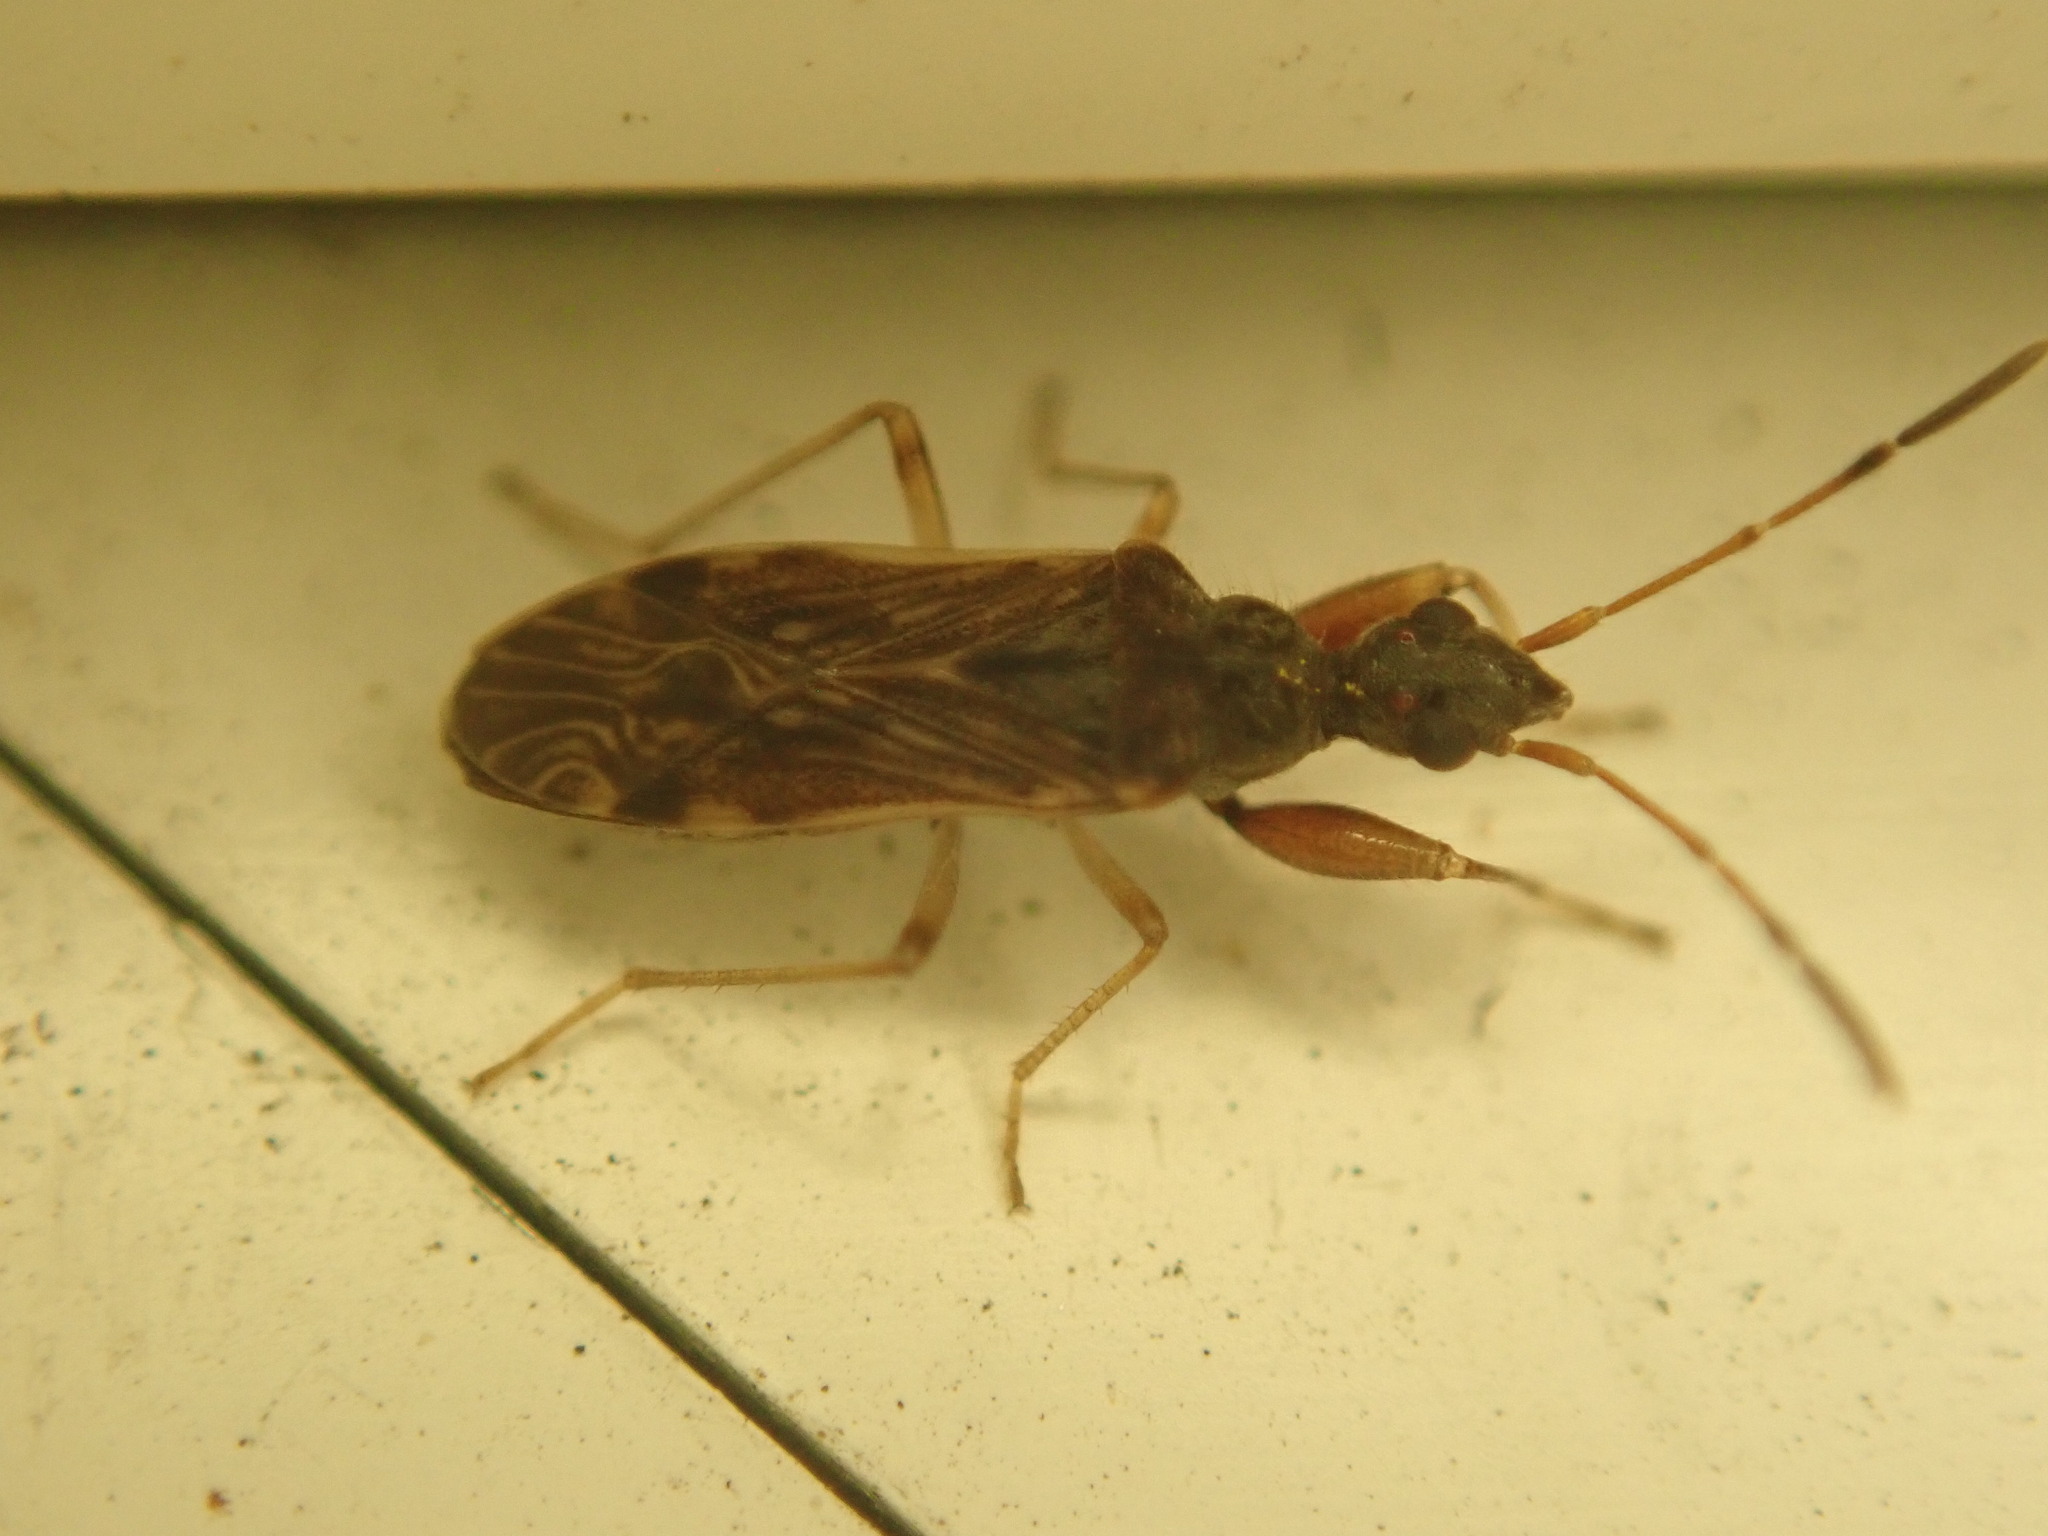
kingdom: Animalia
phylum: Arthropoda
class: Insecta
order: Hemiptera
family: Rhyparochromidae
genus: Heraeus
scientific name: Heraeus plebejus
